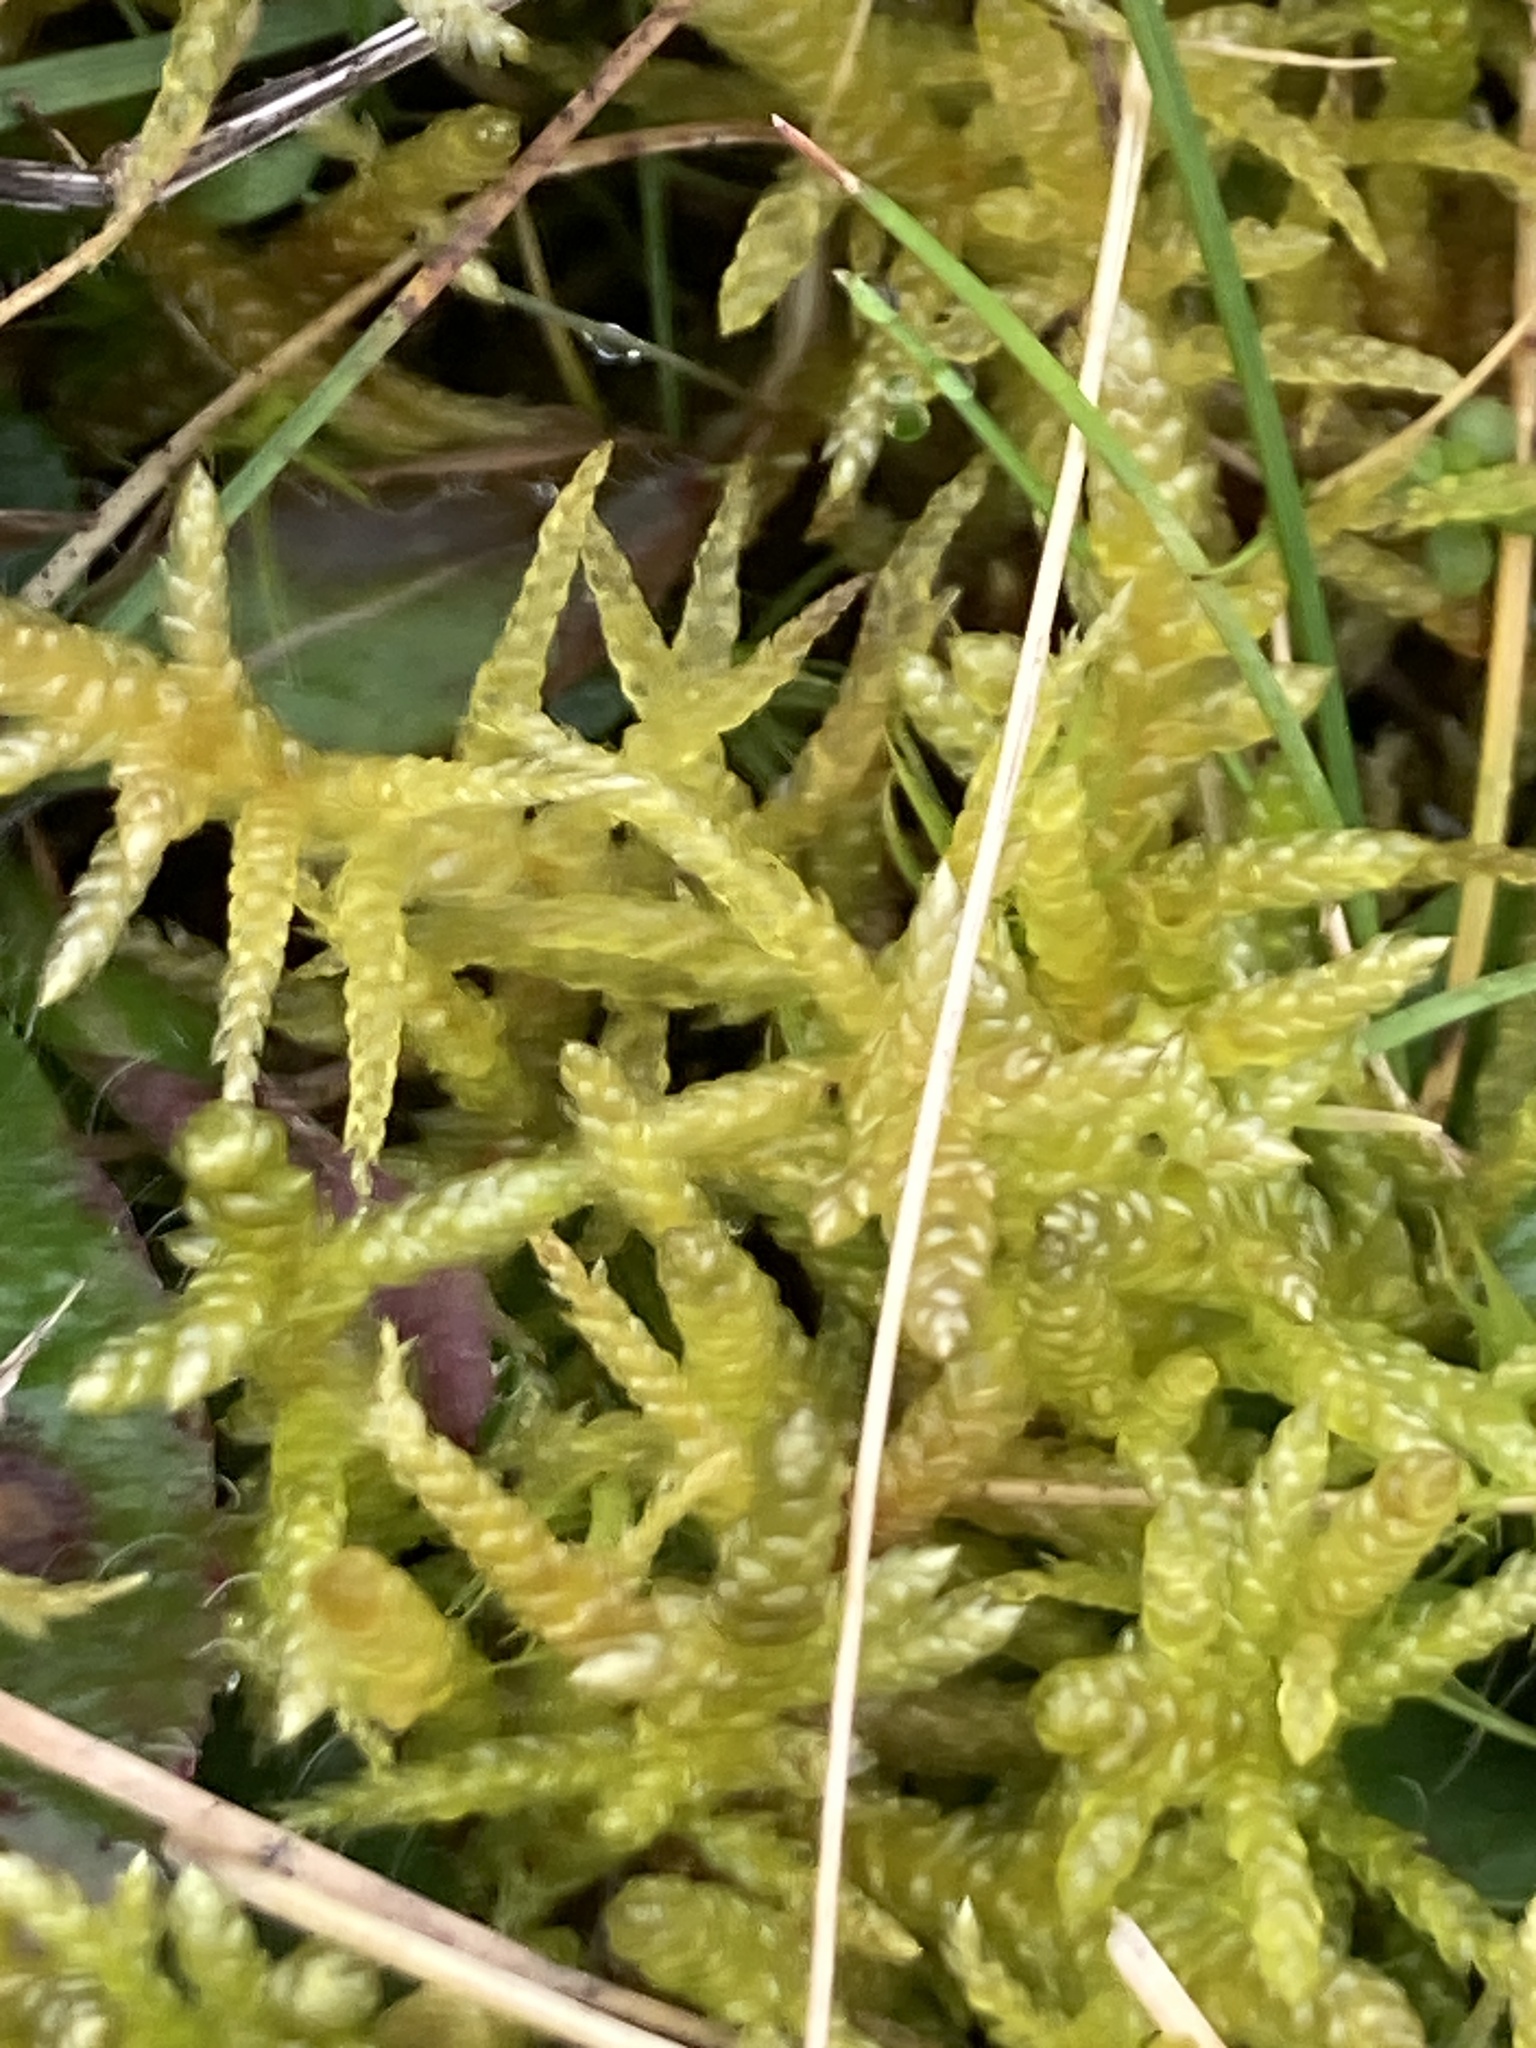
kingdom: Plantae
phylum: Bryophyta
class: Bryopsida
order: Hypnales
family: Brachytheciaceae
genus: Pseudoscleropodium
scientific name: Pseudoscleropodium purum
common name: Neat feather-moss
